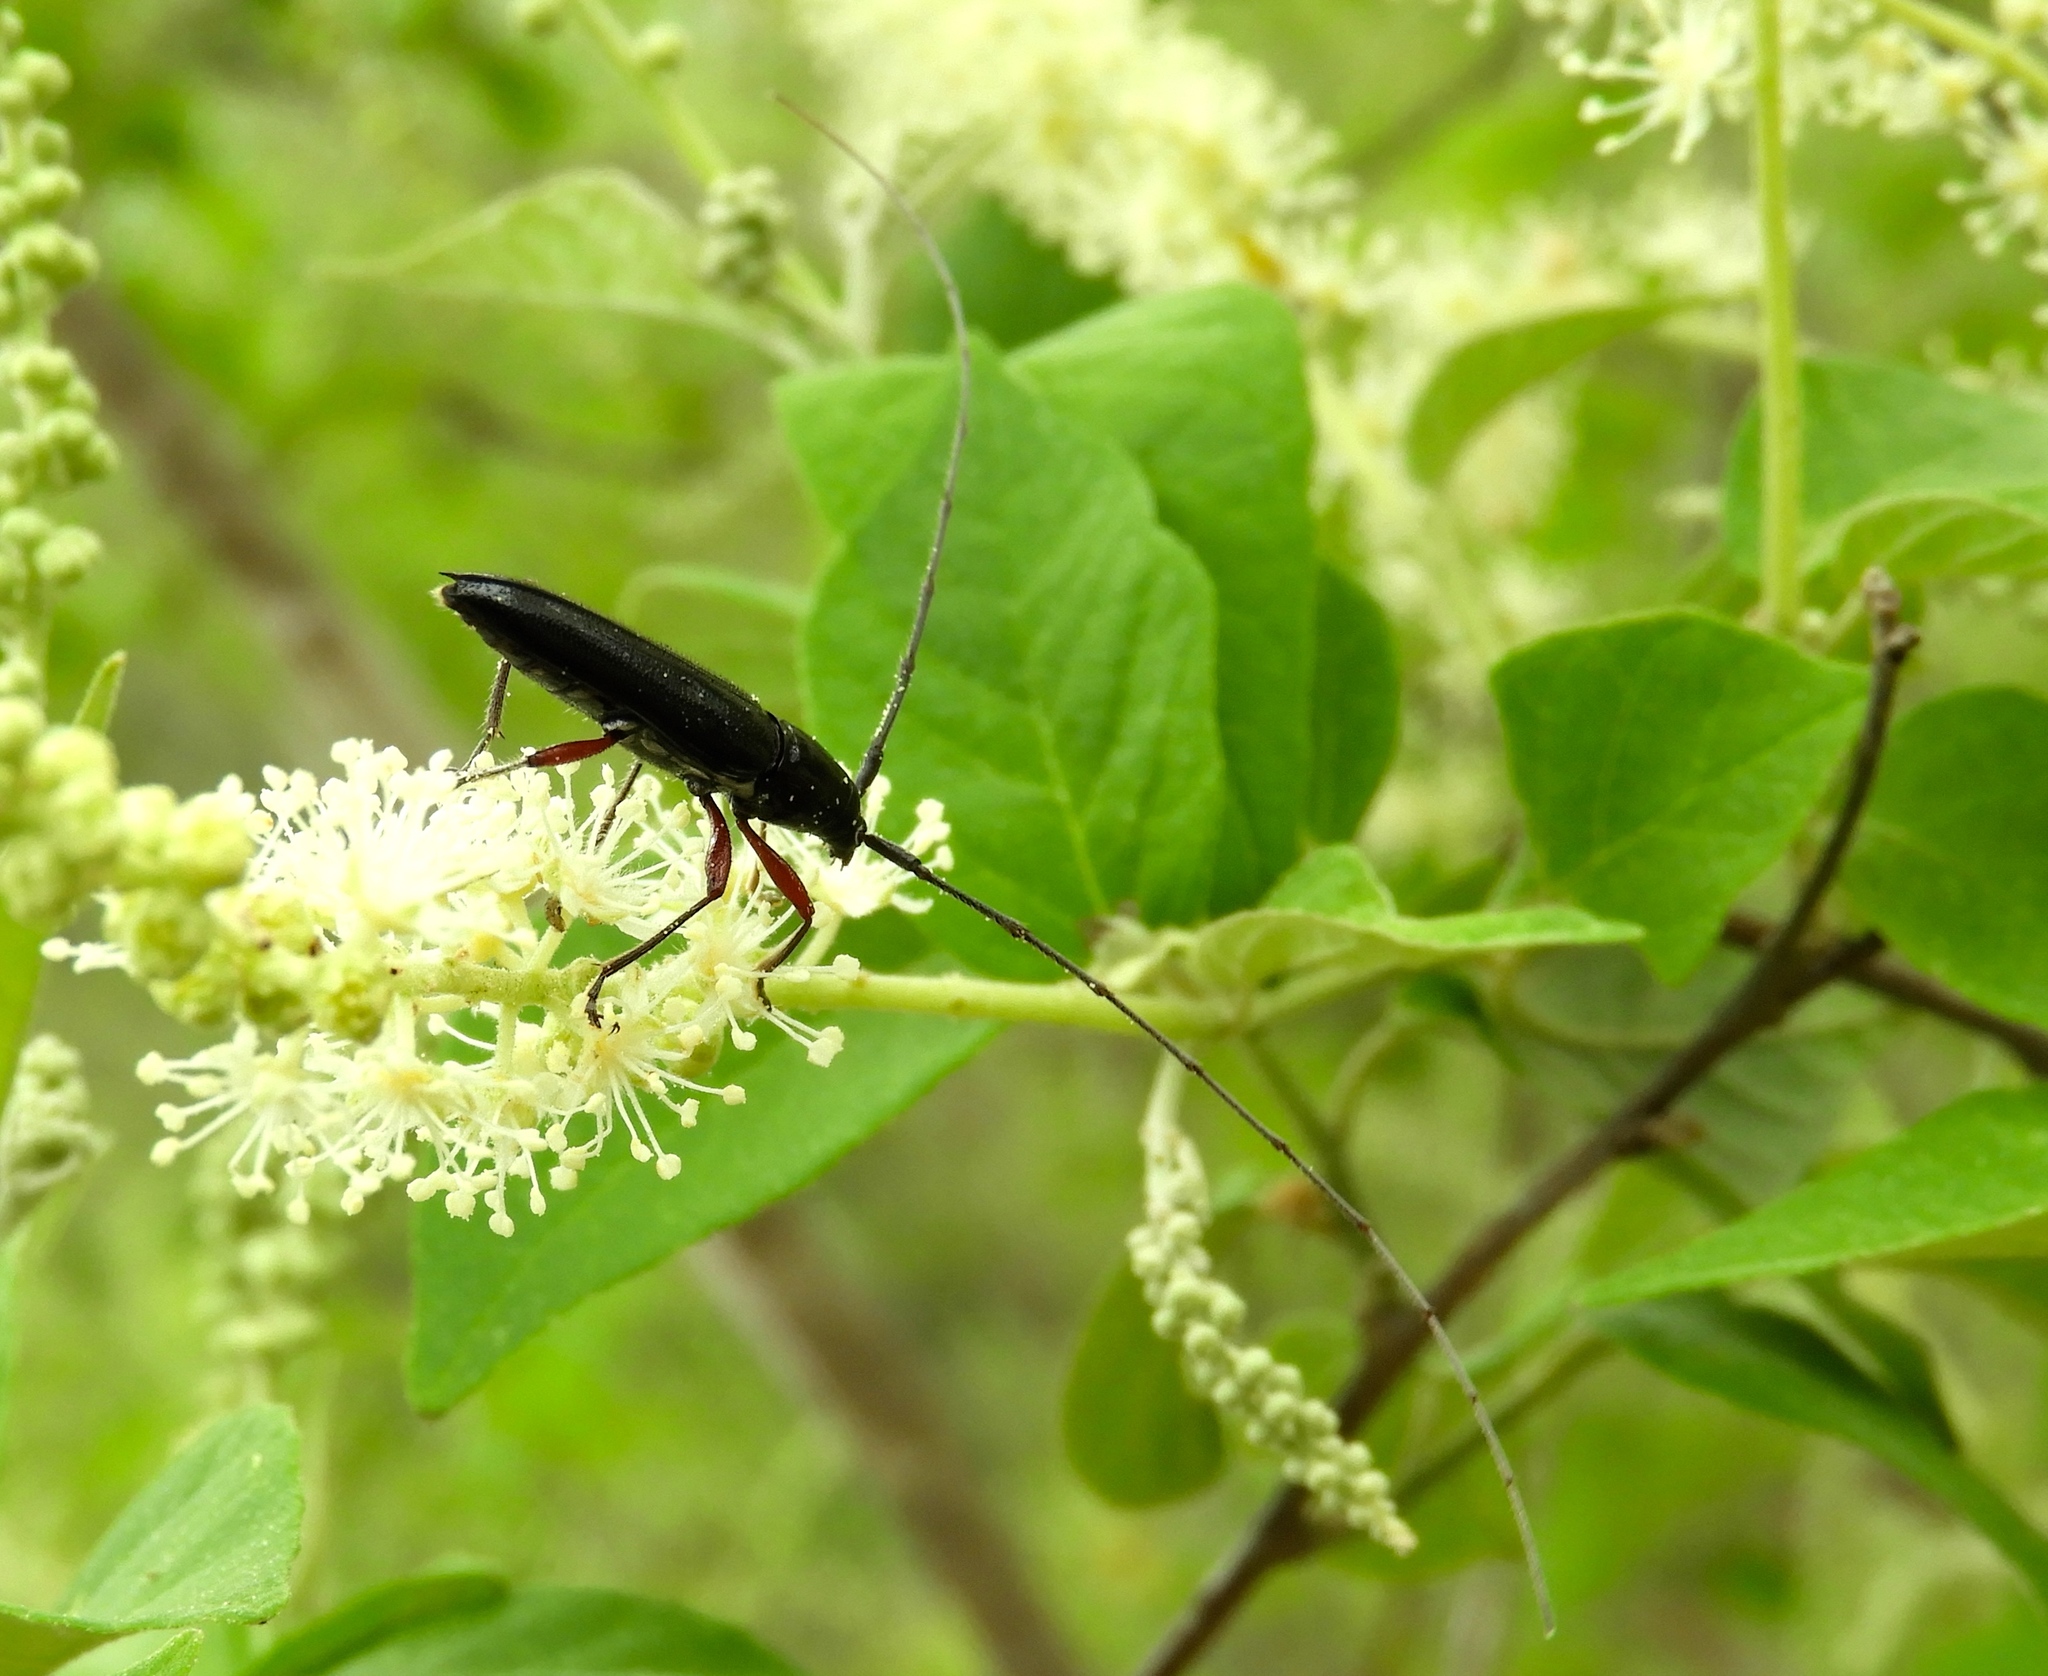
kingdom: Animalia
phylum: Arthropoda
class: Insecta
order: Coleoptera
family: Cerambycidae
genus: Stenosphenus
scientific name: Stenosphenus
